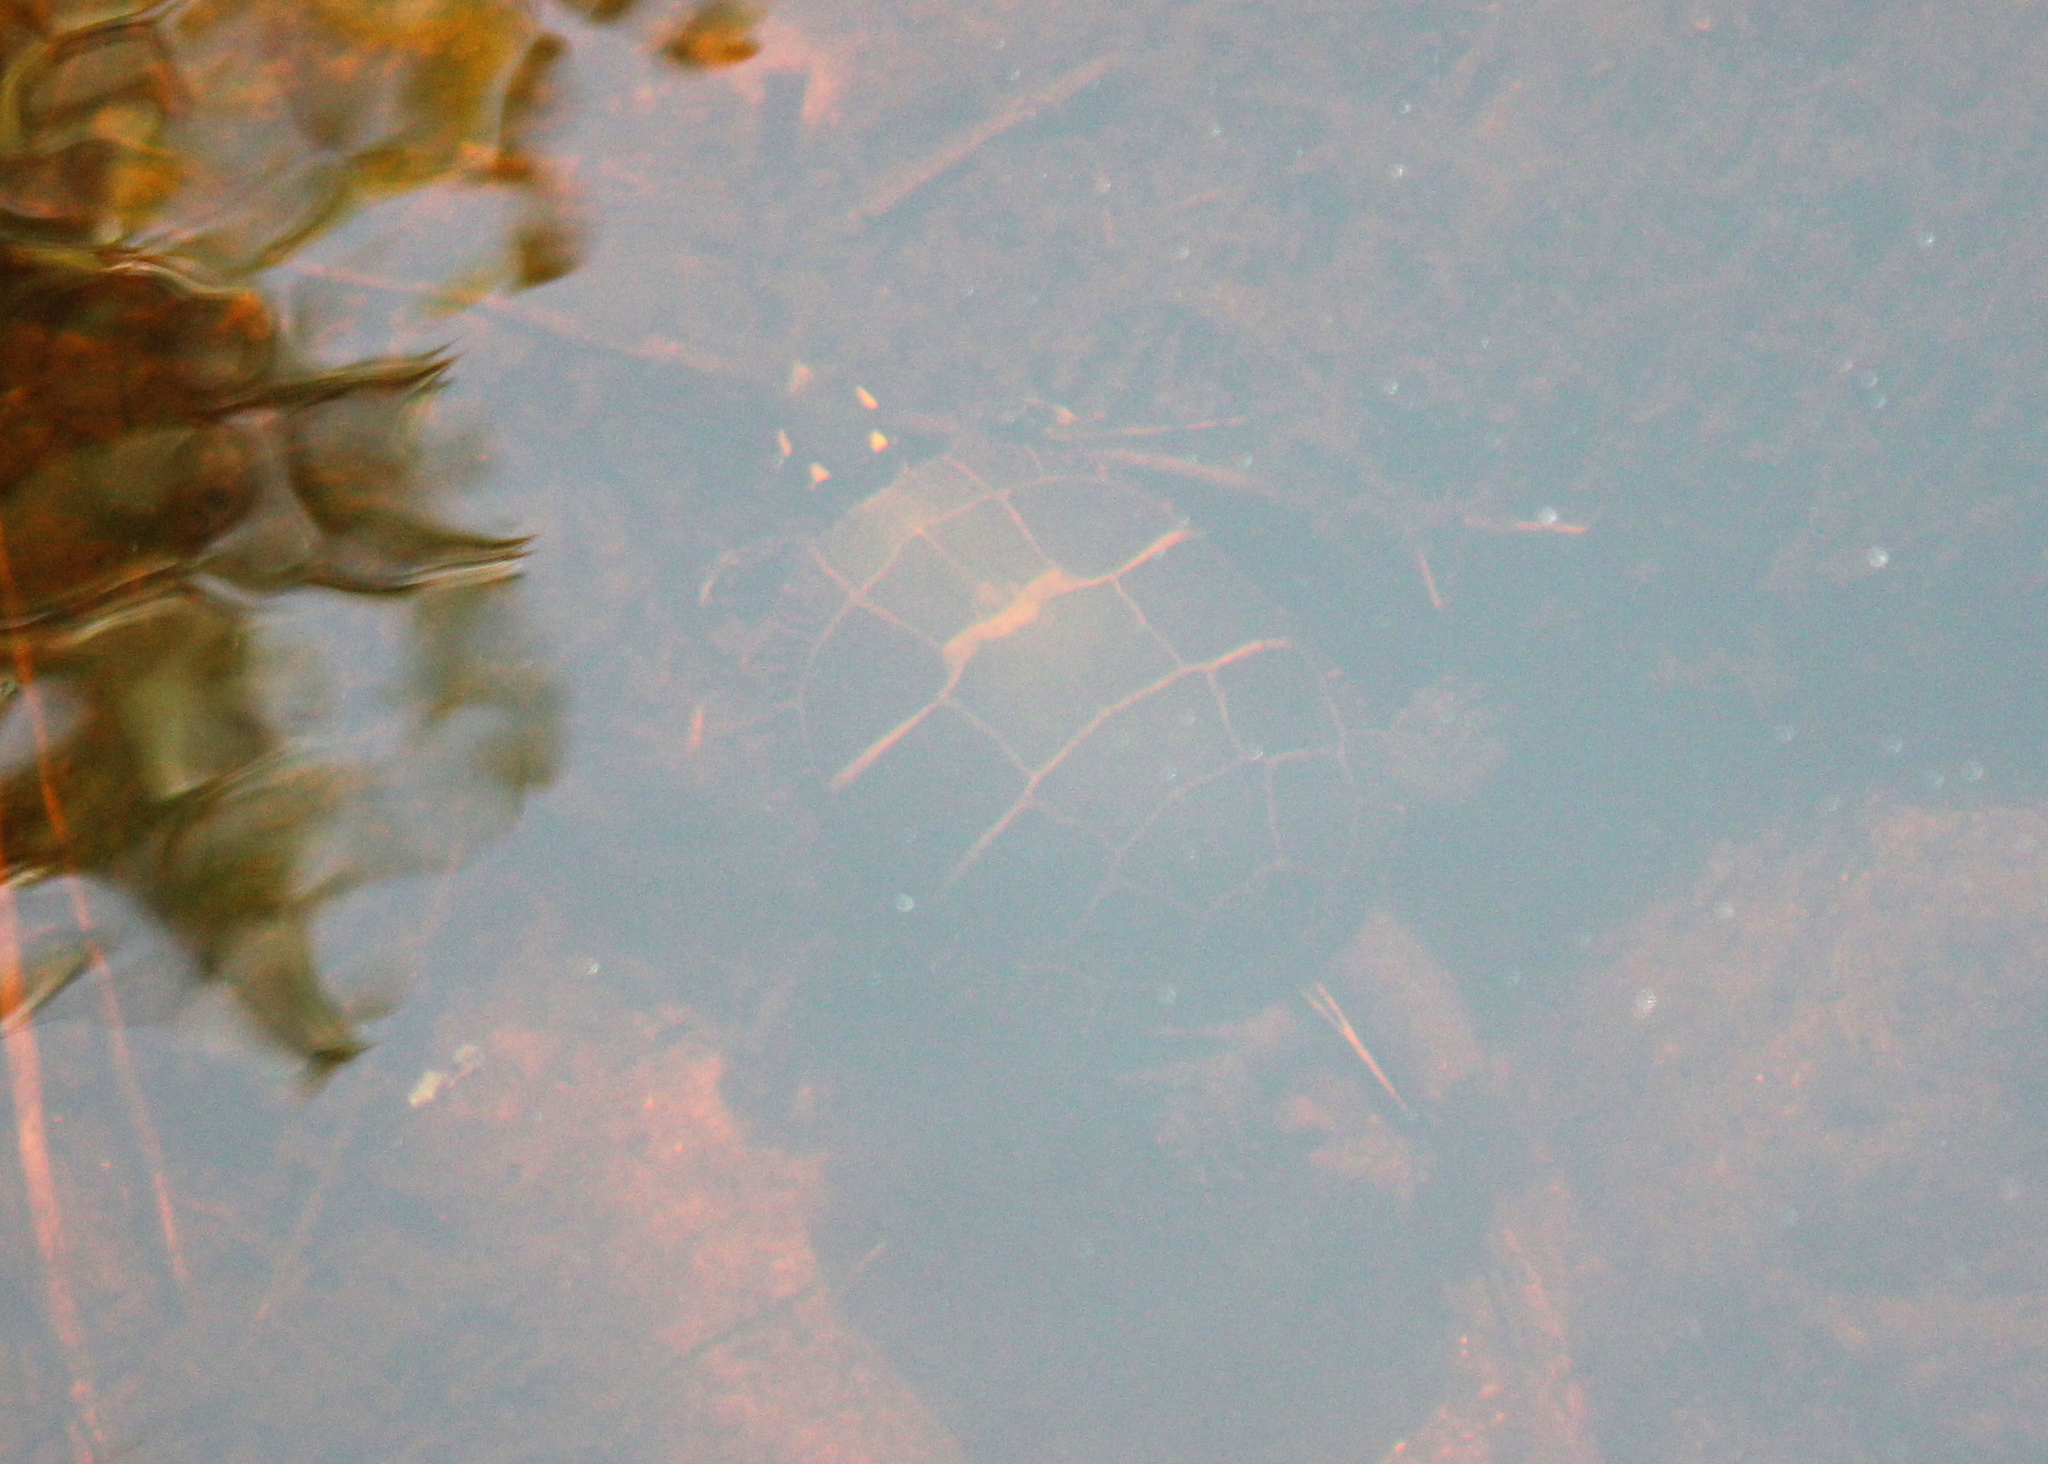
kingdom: Animalia
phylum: Chordata
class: Testudines
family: Emydidae
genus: Chrysemys
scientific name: Chrysemys picta
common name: Painted turtle
